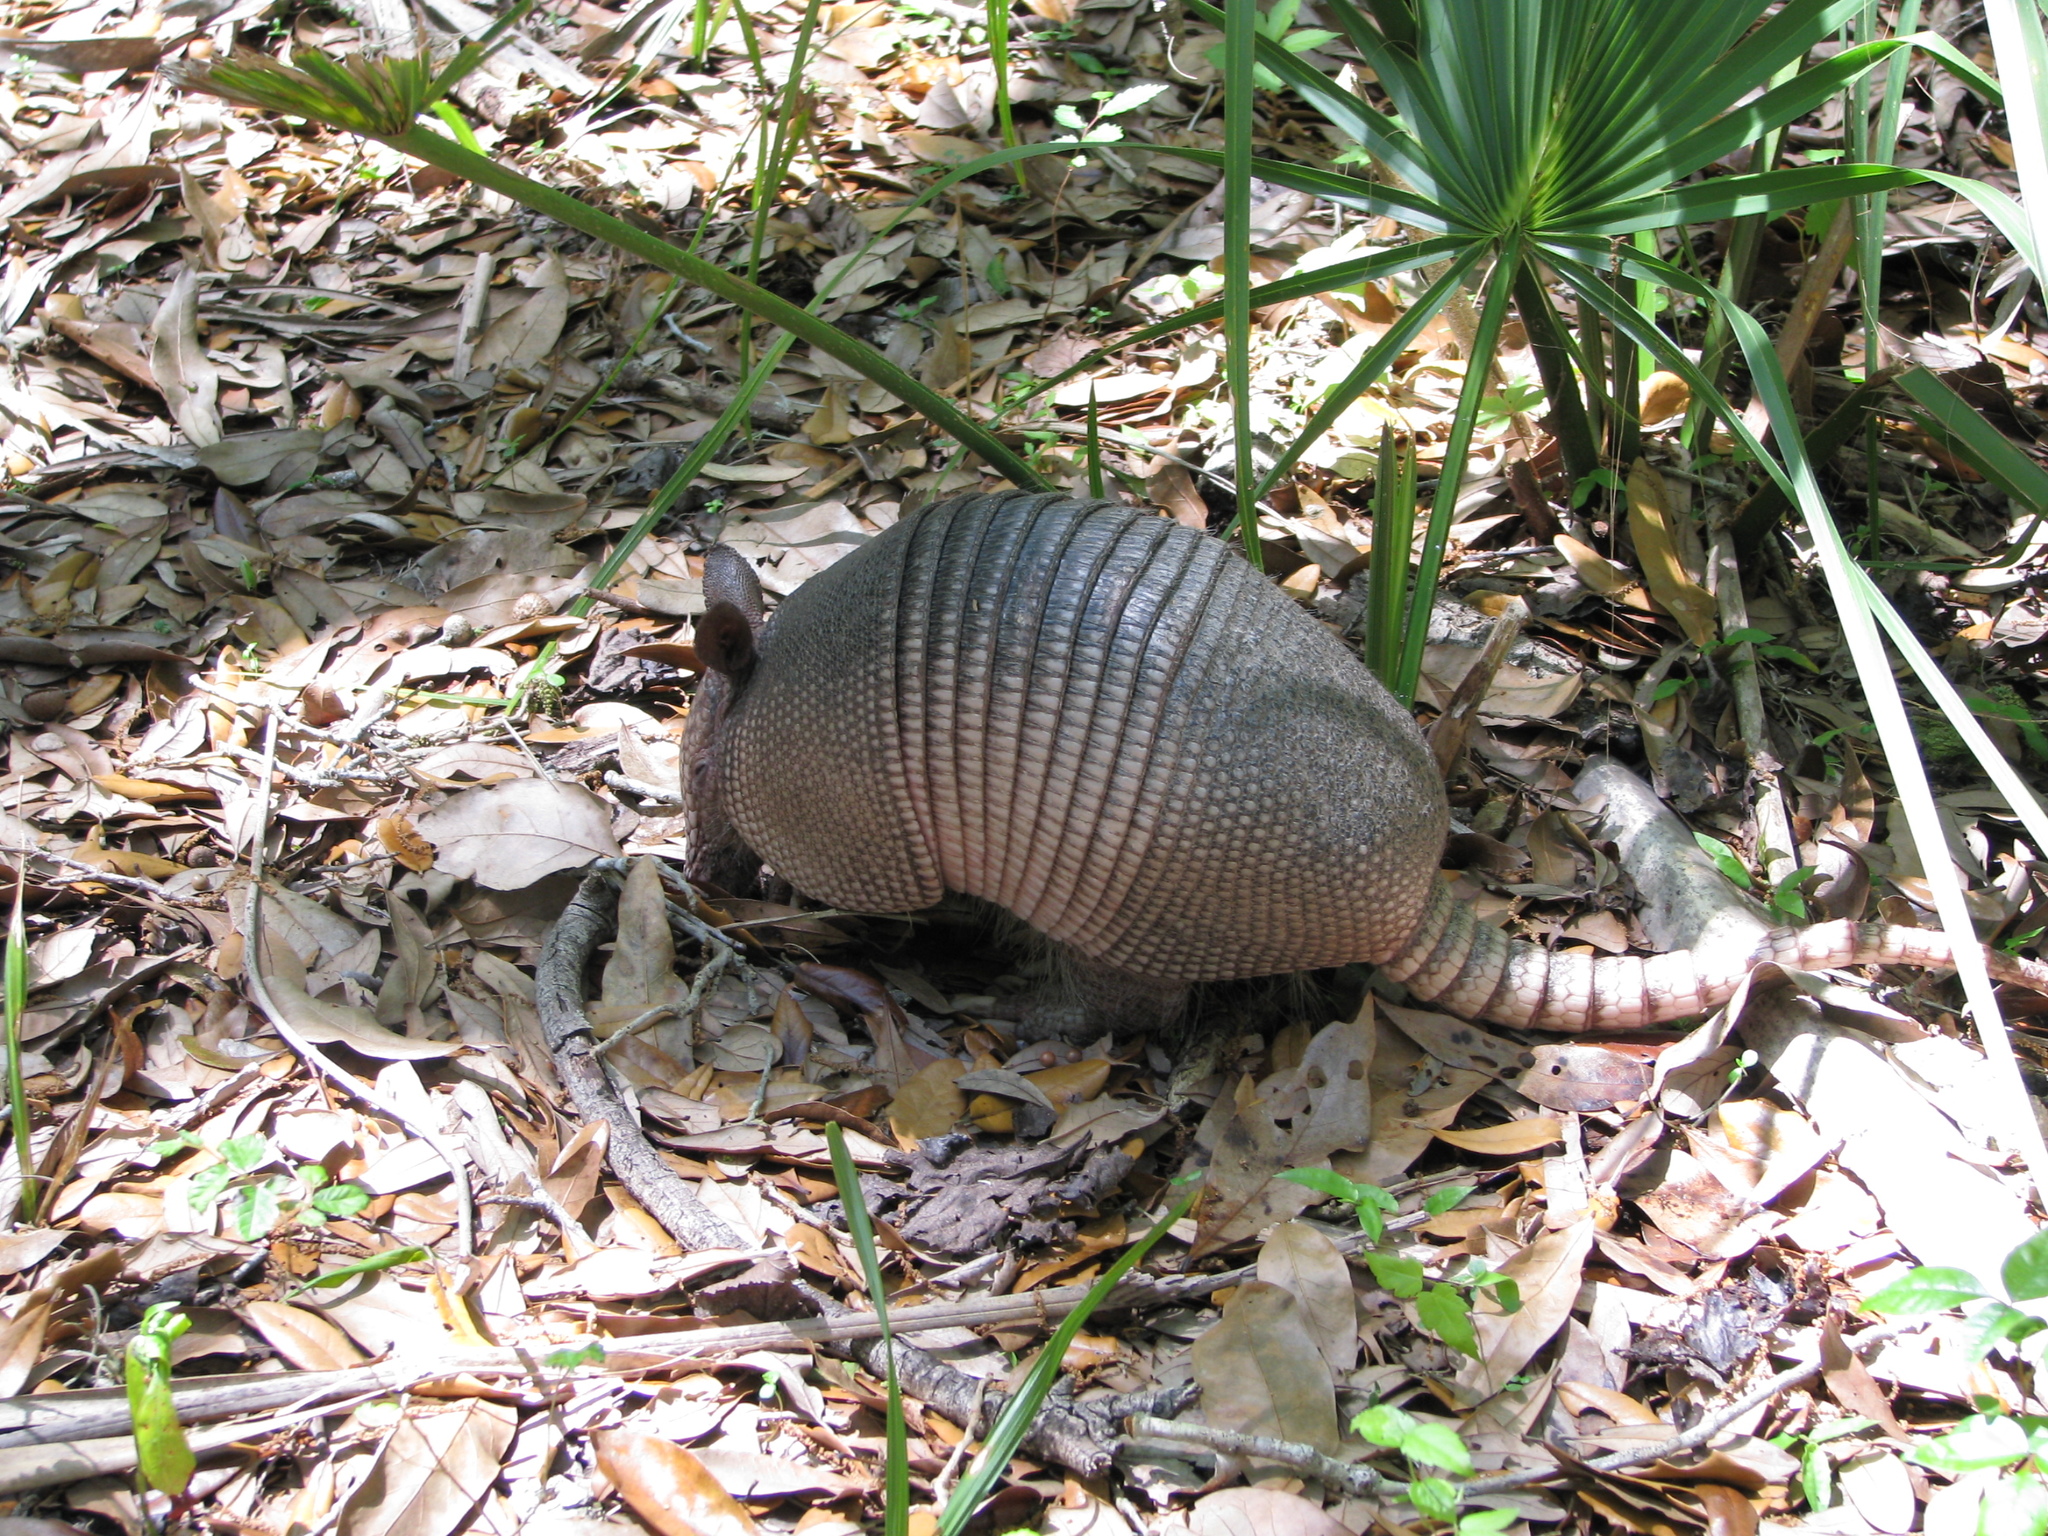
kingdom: Animalia
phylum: Chordata
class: Mammalia
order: Cingulata
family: Dasypodidae
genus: Dasypus
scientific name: Dasypus novemcinctus
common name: Nine-banded armadillo
